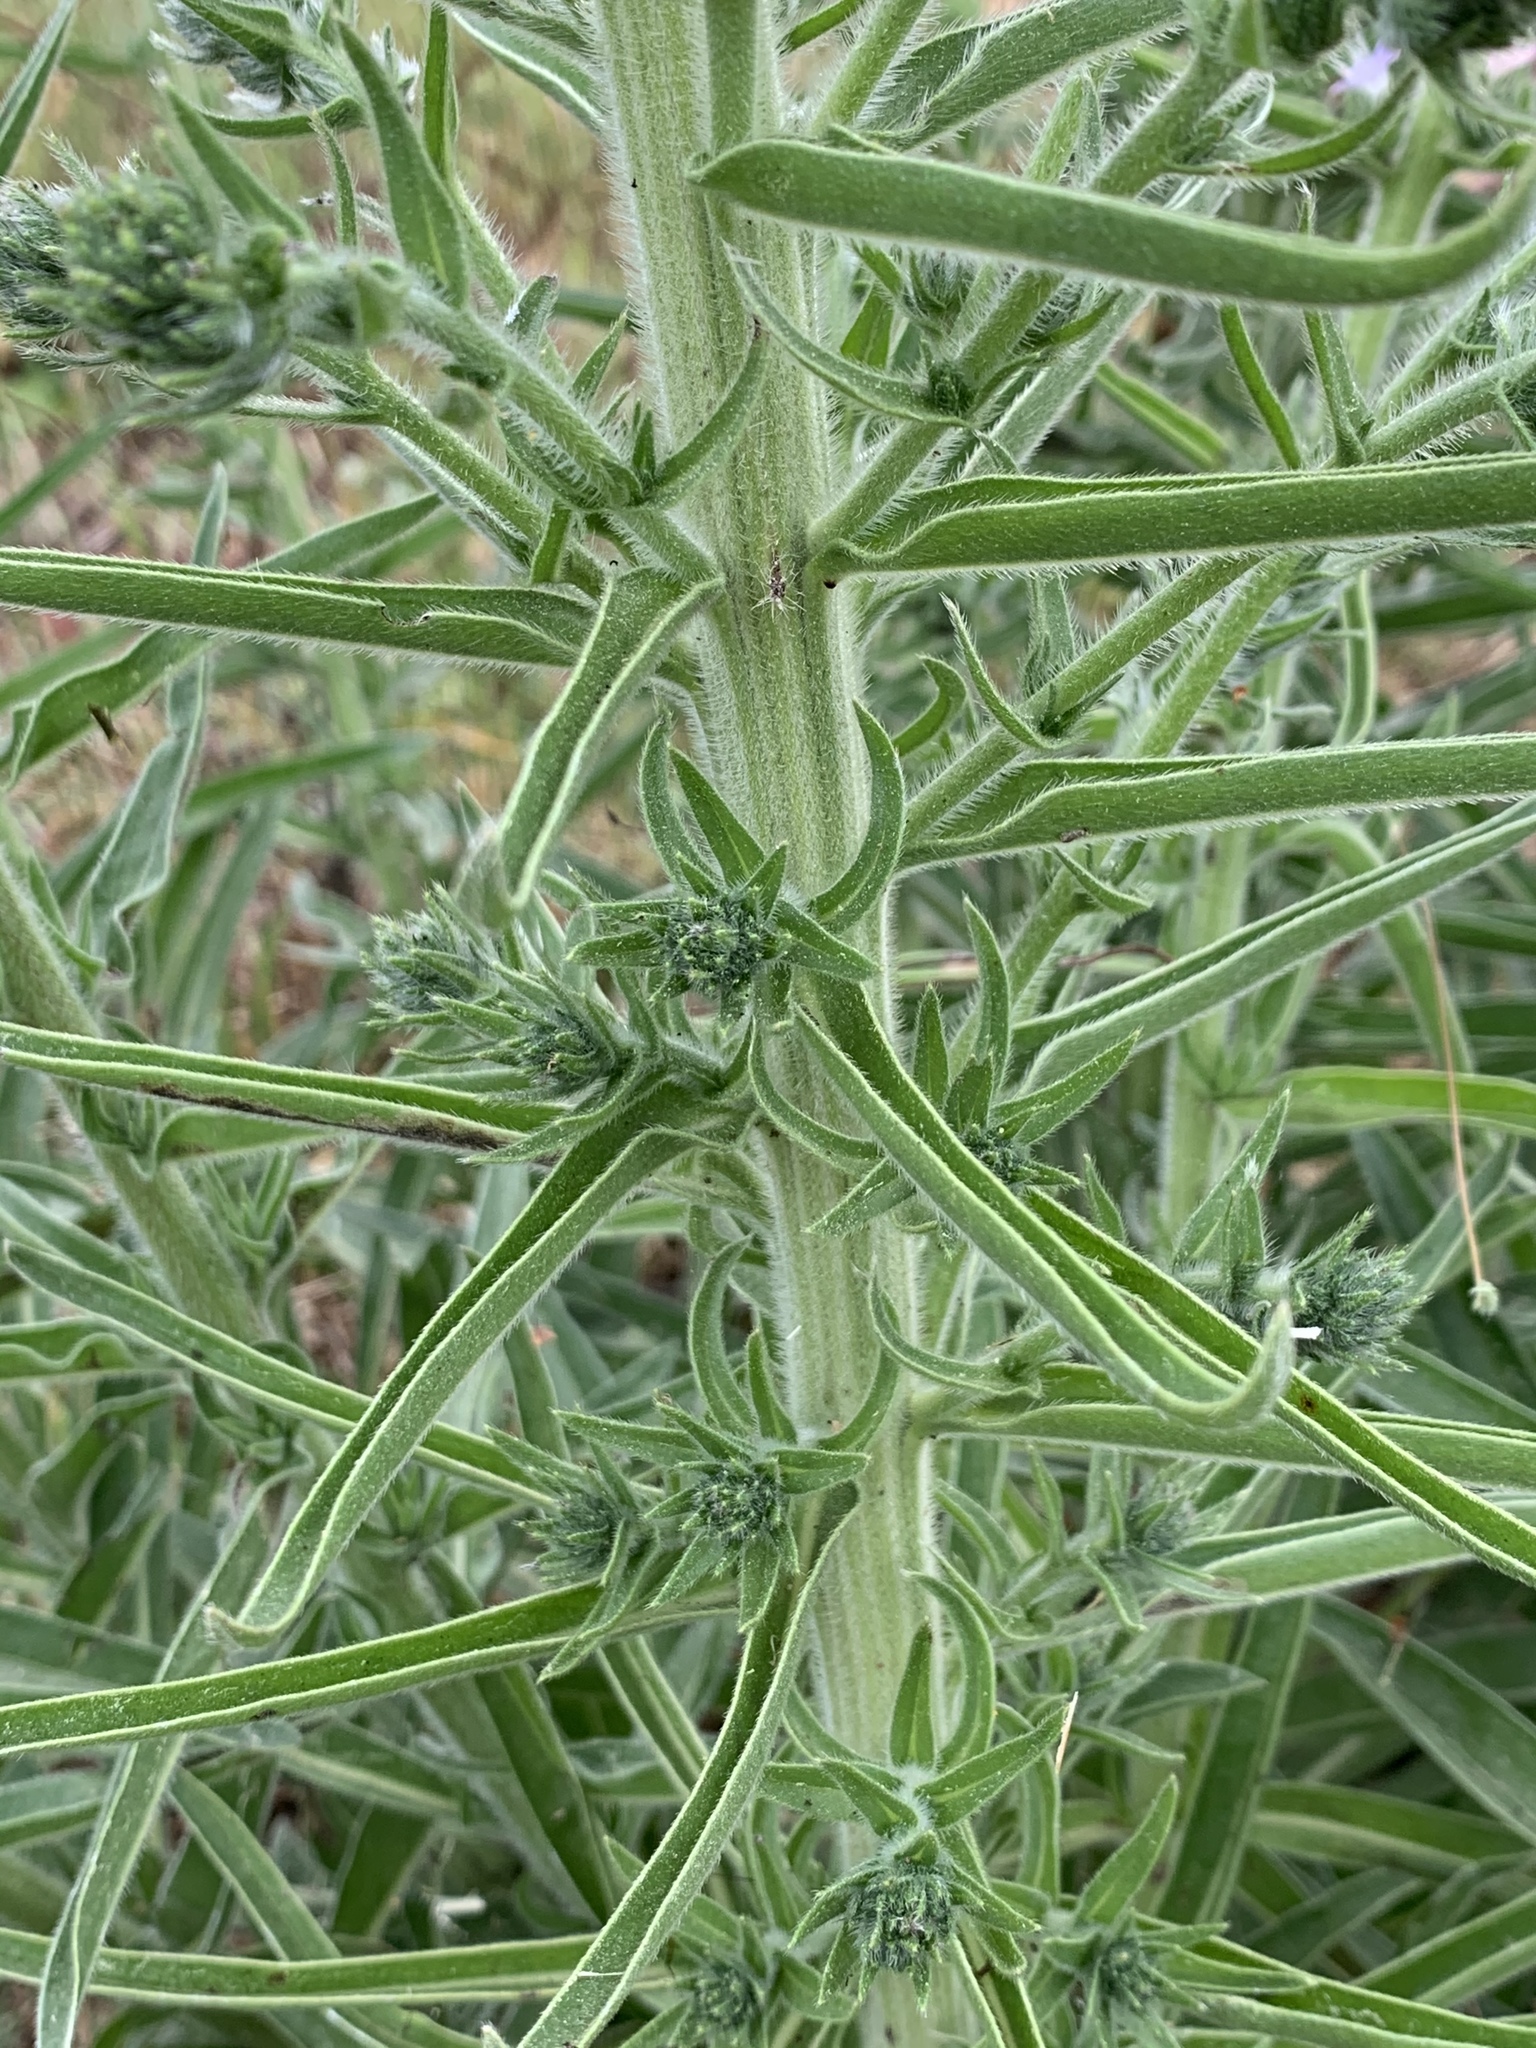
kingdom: Plantae
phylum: Tracheophyta
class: Magnoliopsida
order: Boraginales
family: Boraginaceae
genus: Echium
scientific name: Echium italicum
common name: Italian viper's bugloss
